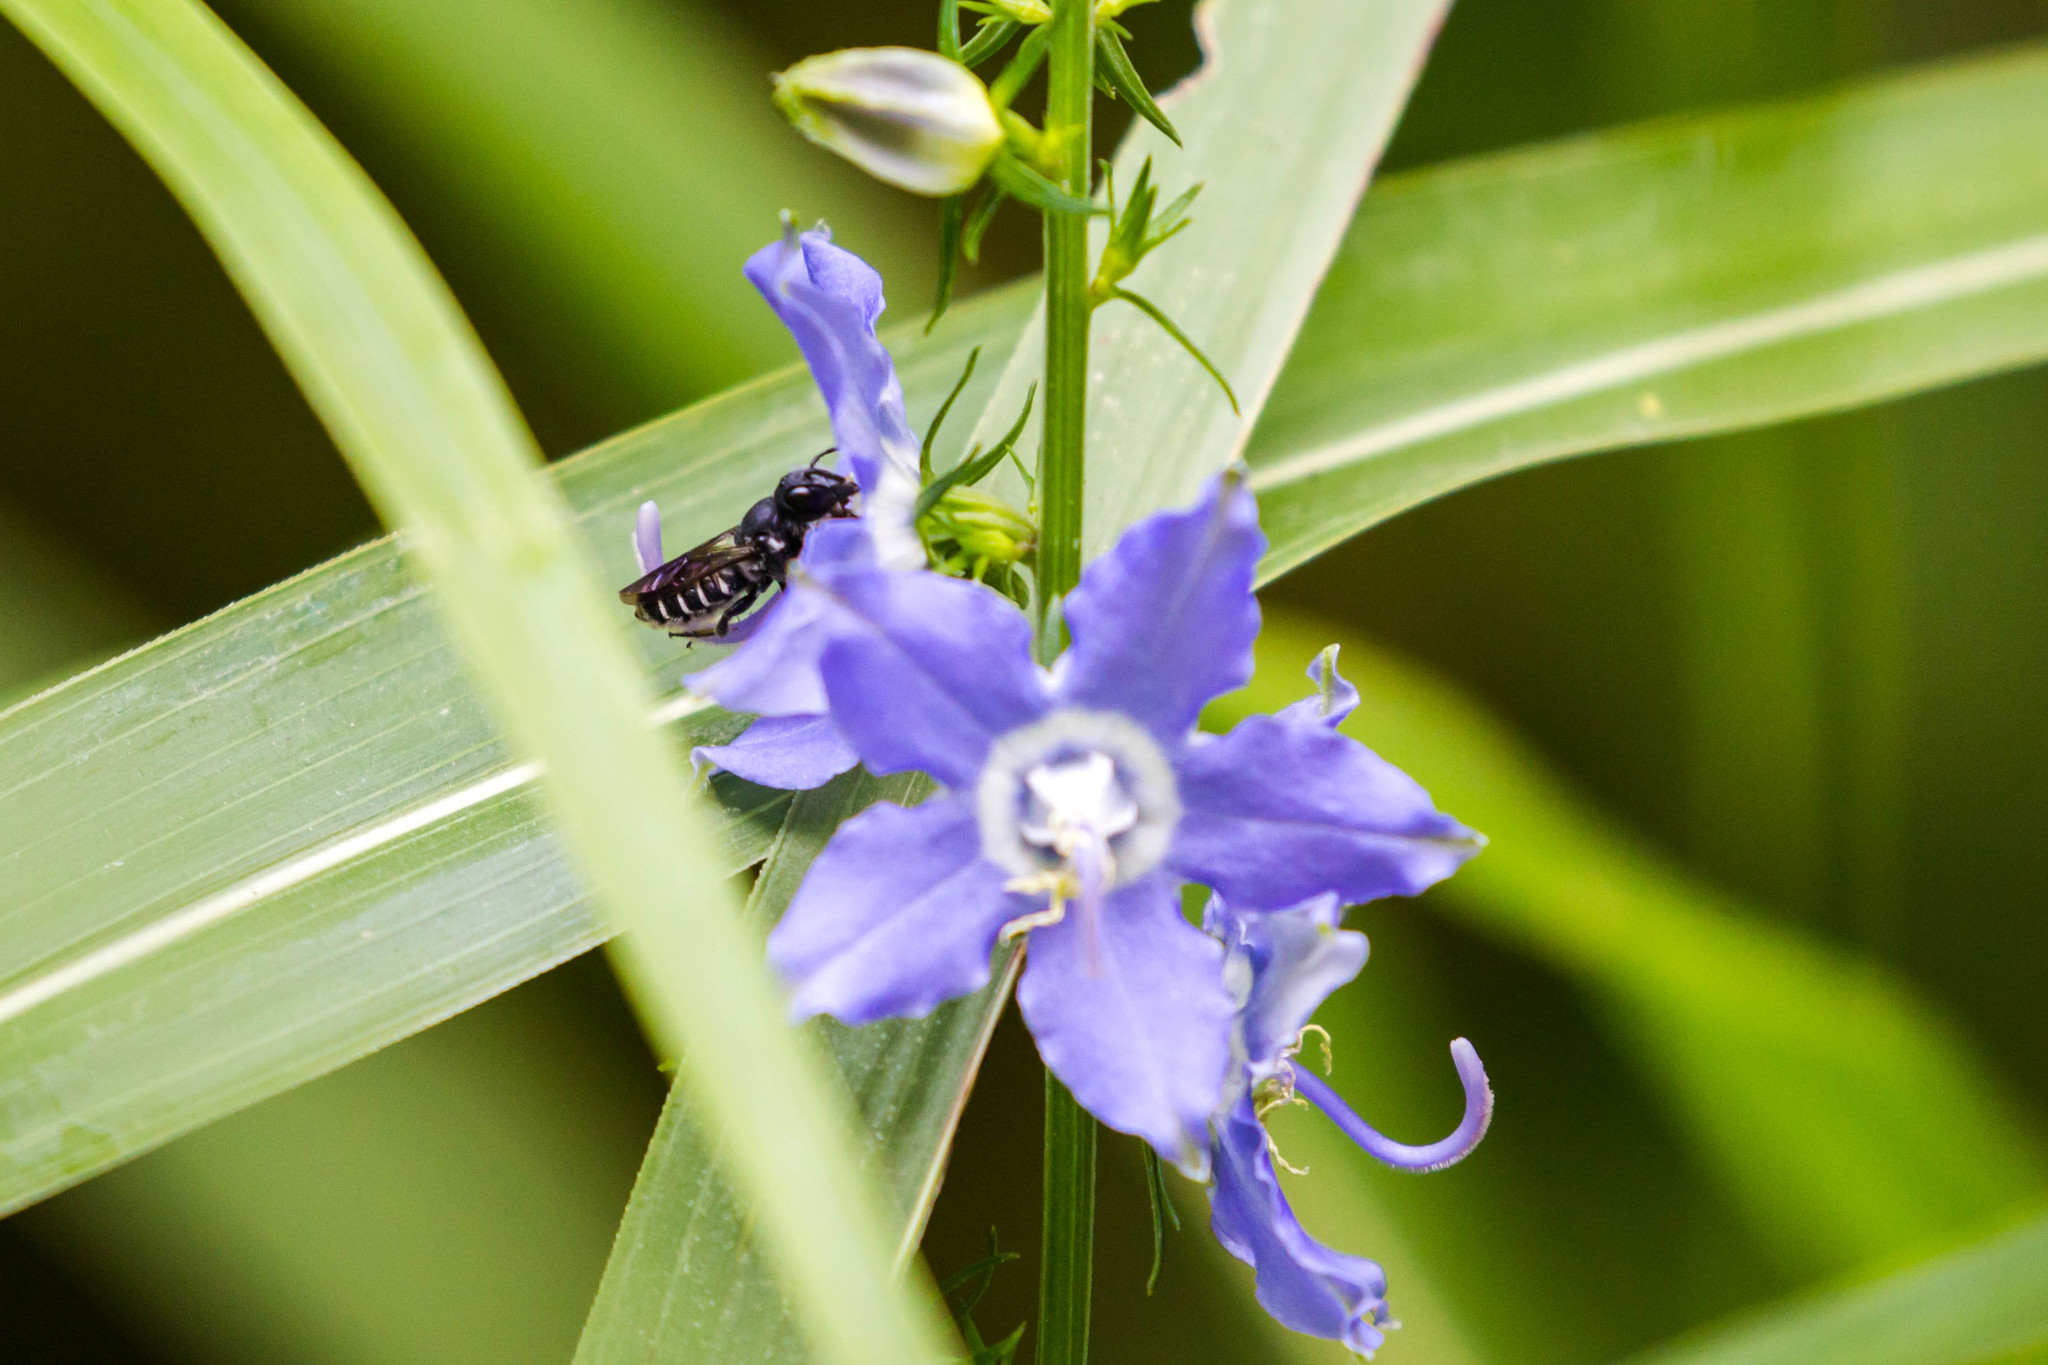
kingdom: Animalia
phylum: Arthropoda
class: Insecta
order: Hymenoptera
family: Megachilidae
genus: Megachile
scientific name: Megachile campanulae
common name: Bellflower resin bee
